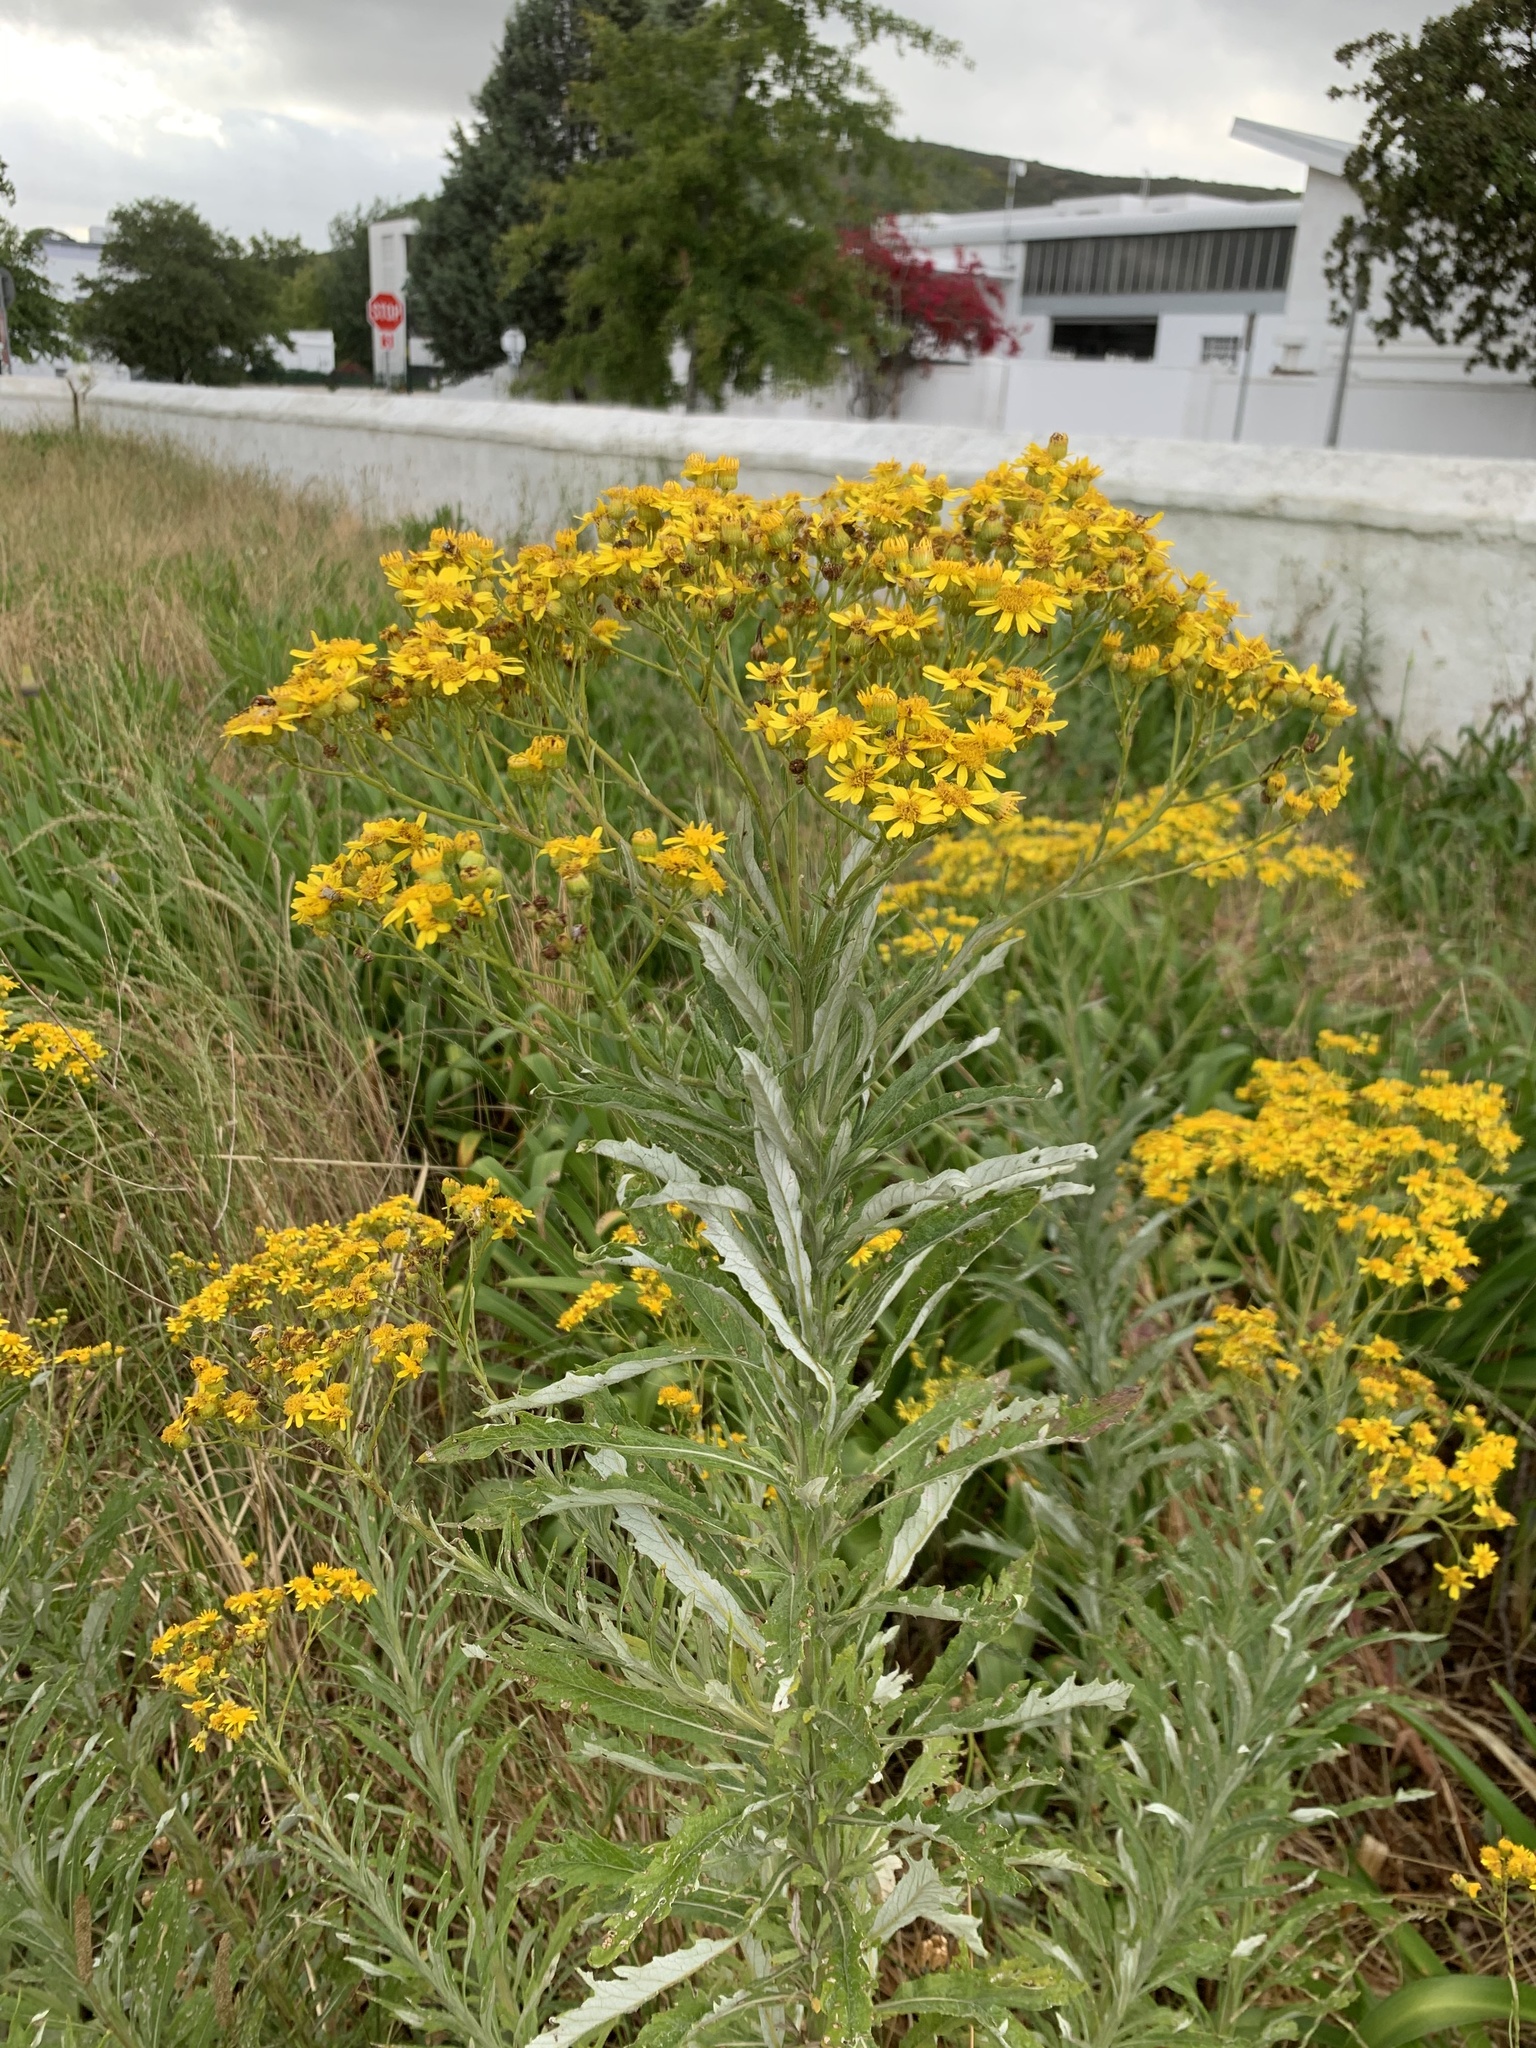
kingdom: Plantae
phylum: Tracheophyta
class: Magnoliopsida
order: Asterales
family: Asteraceae
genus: Senecio
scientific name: Senecio pterophorus
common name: Shoddy ragwort
